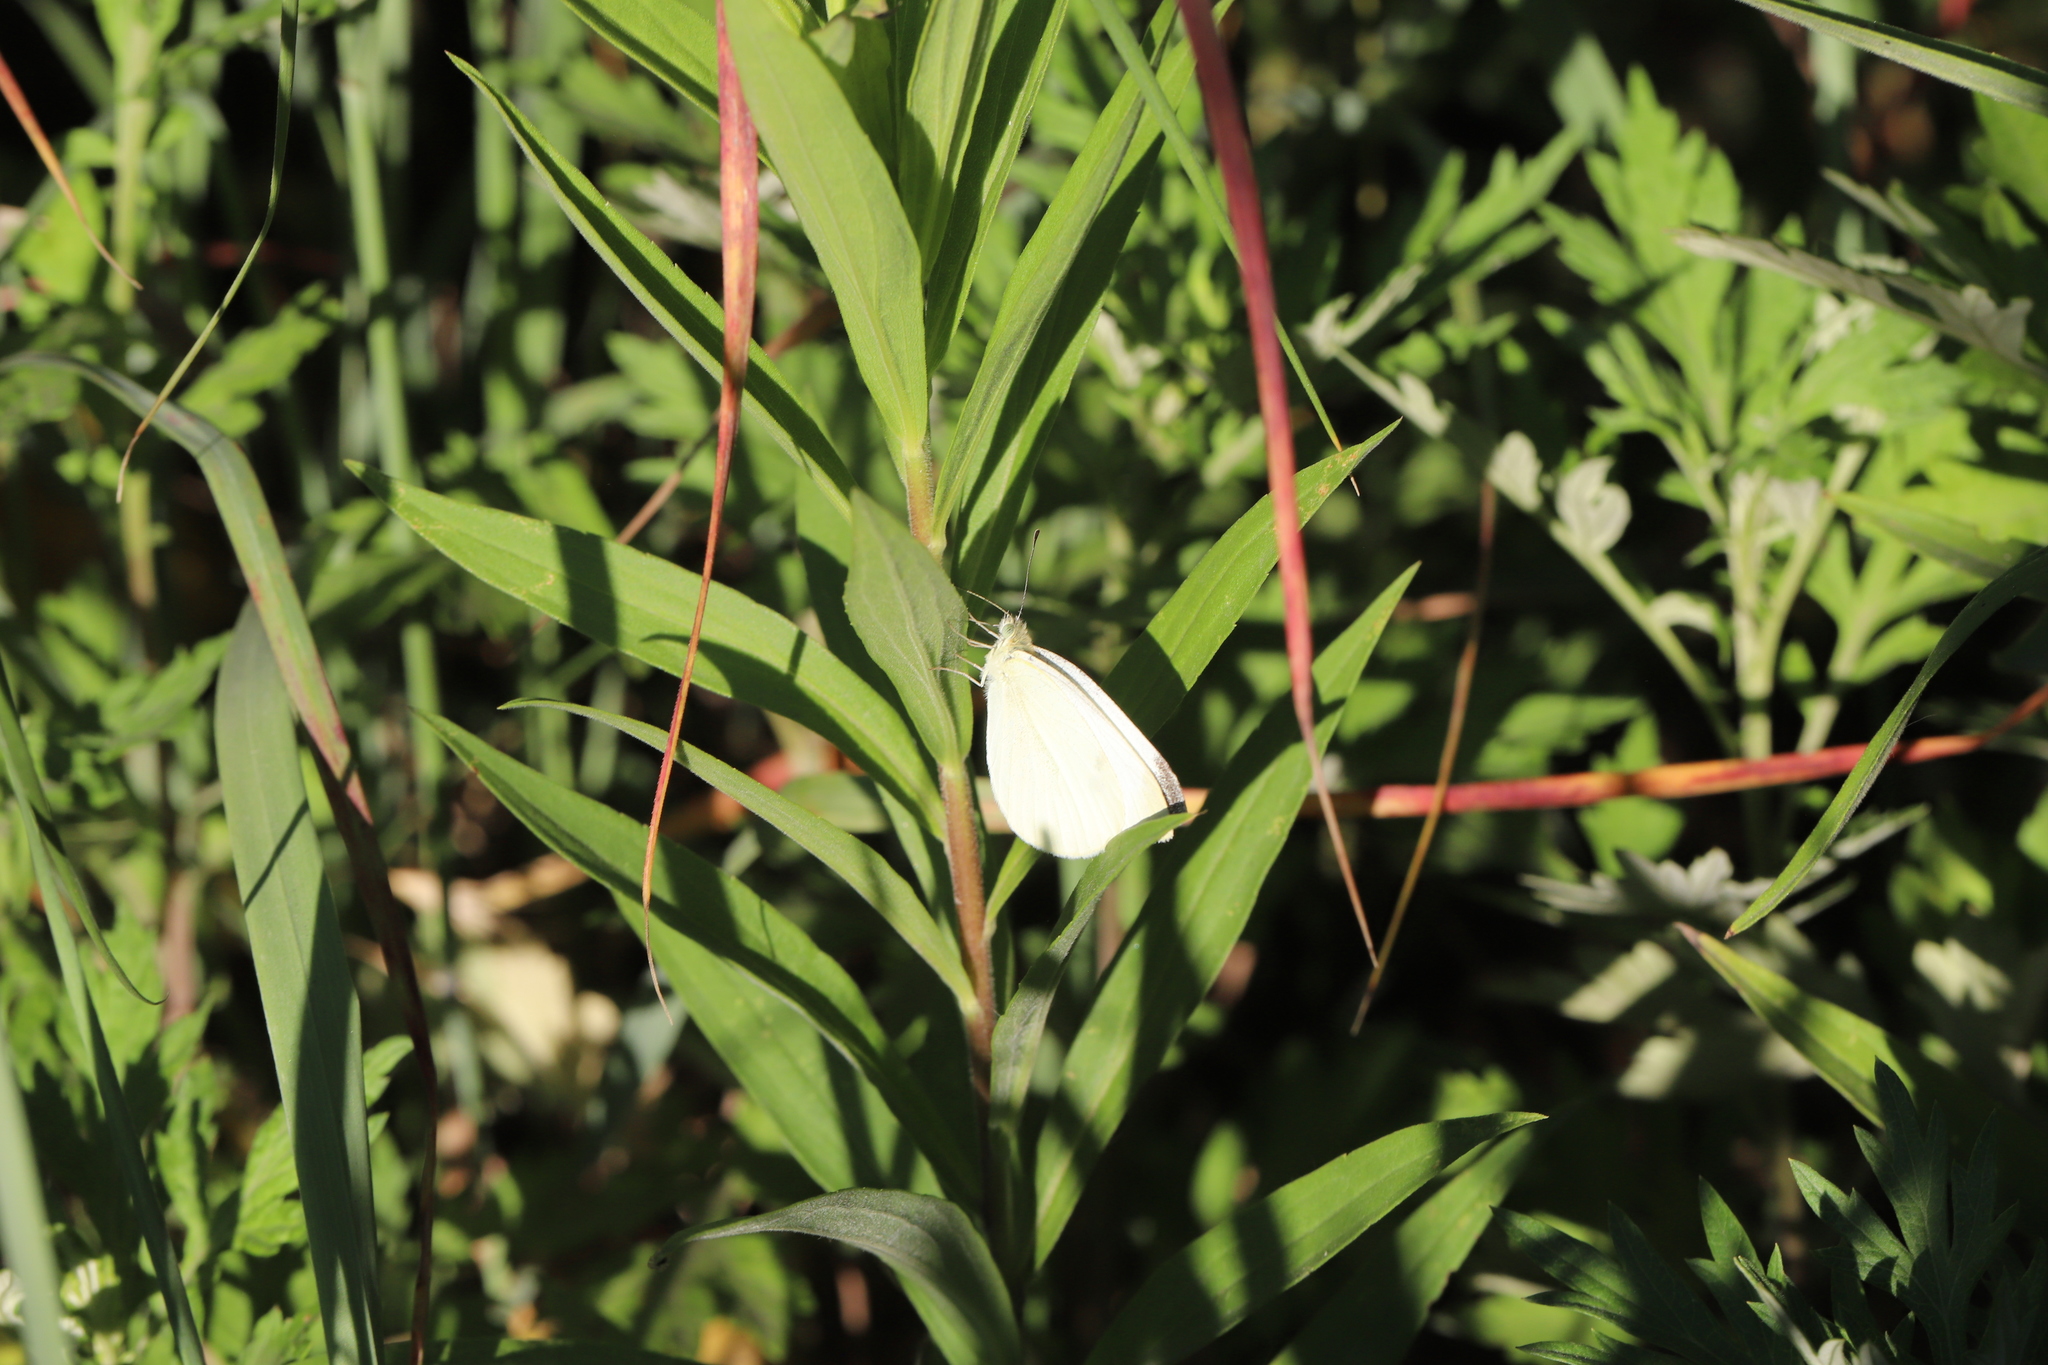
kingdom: Animalia
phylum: Arthropoda
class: Insecta
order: Lepidoptera
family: Pieridae
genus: Pieris
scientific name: Pieris rapae
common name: Small white
